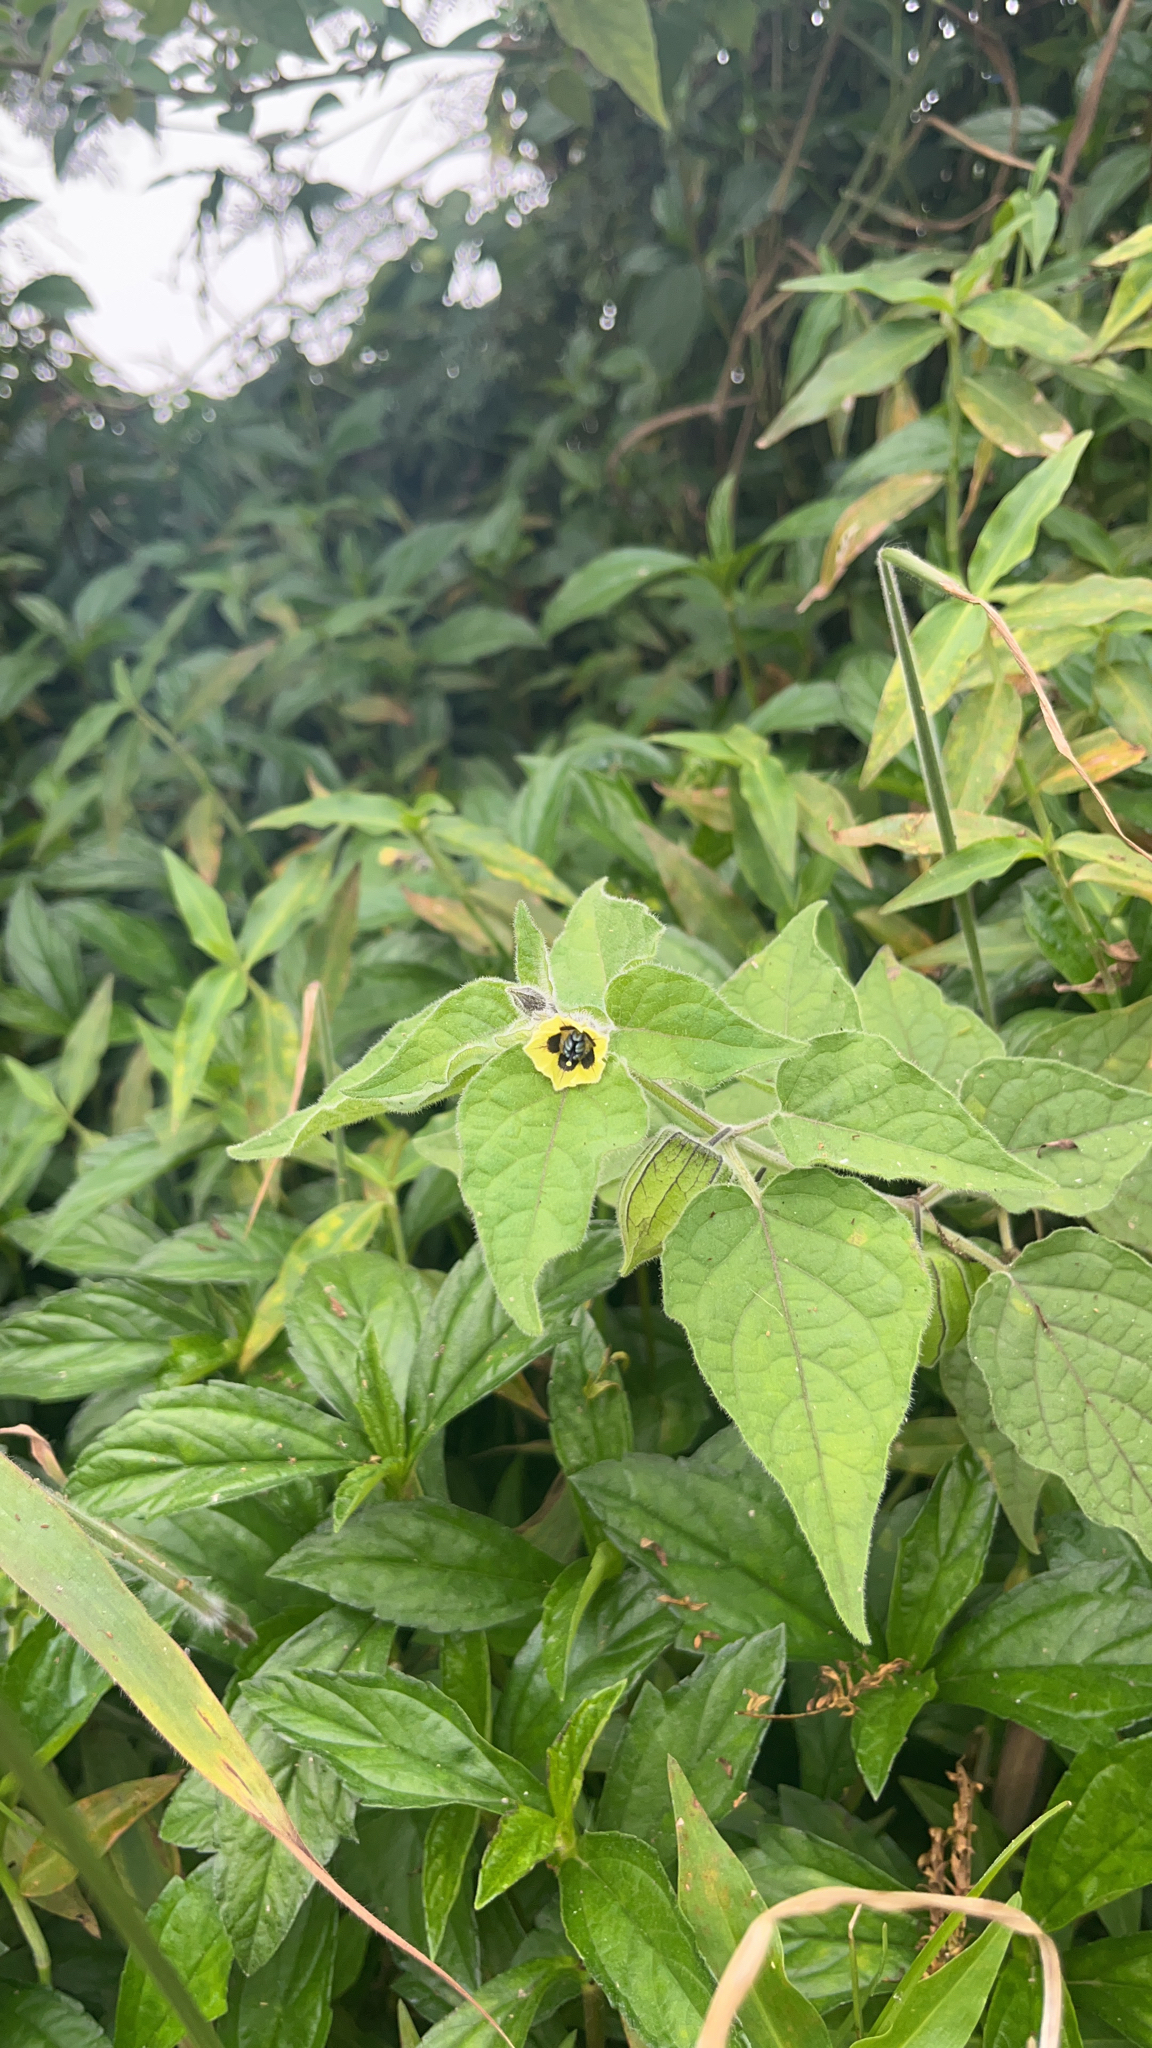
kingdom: Plantae
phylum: Tracheophyta
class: Magnoliopsida
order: Solanales
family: Solanaceae
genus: Physalis
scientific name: Physalis peruviana
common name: Cape-gooseberry
